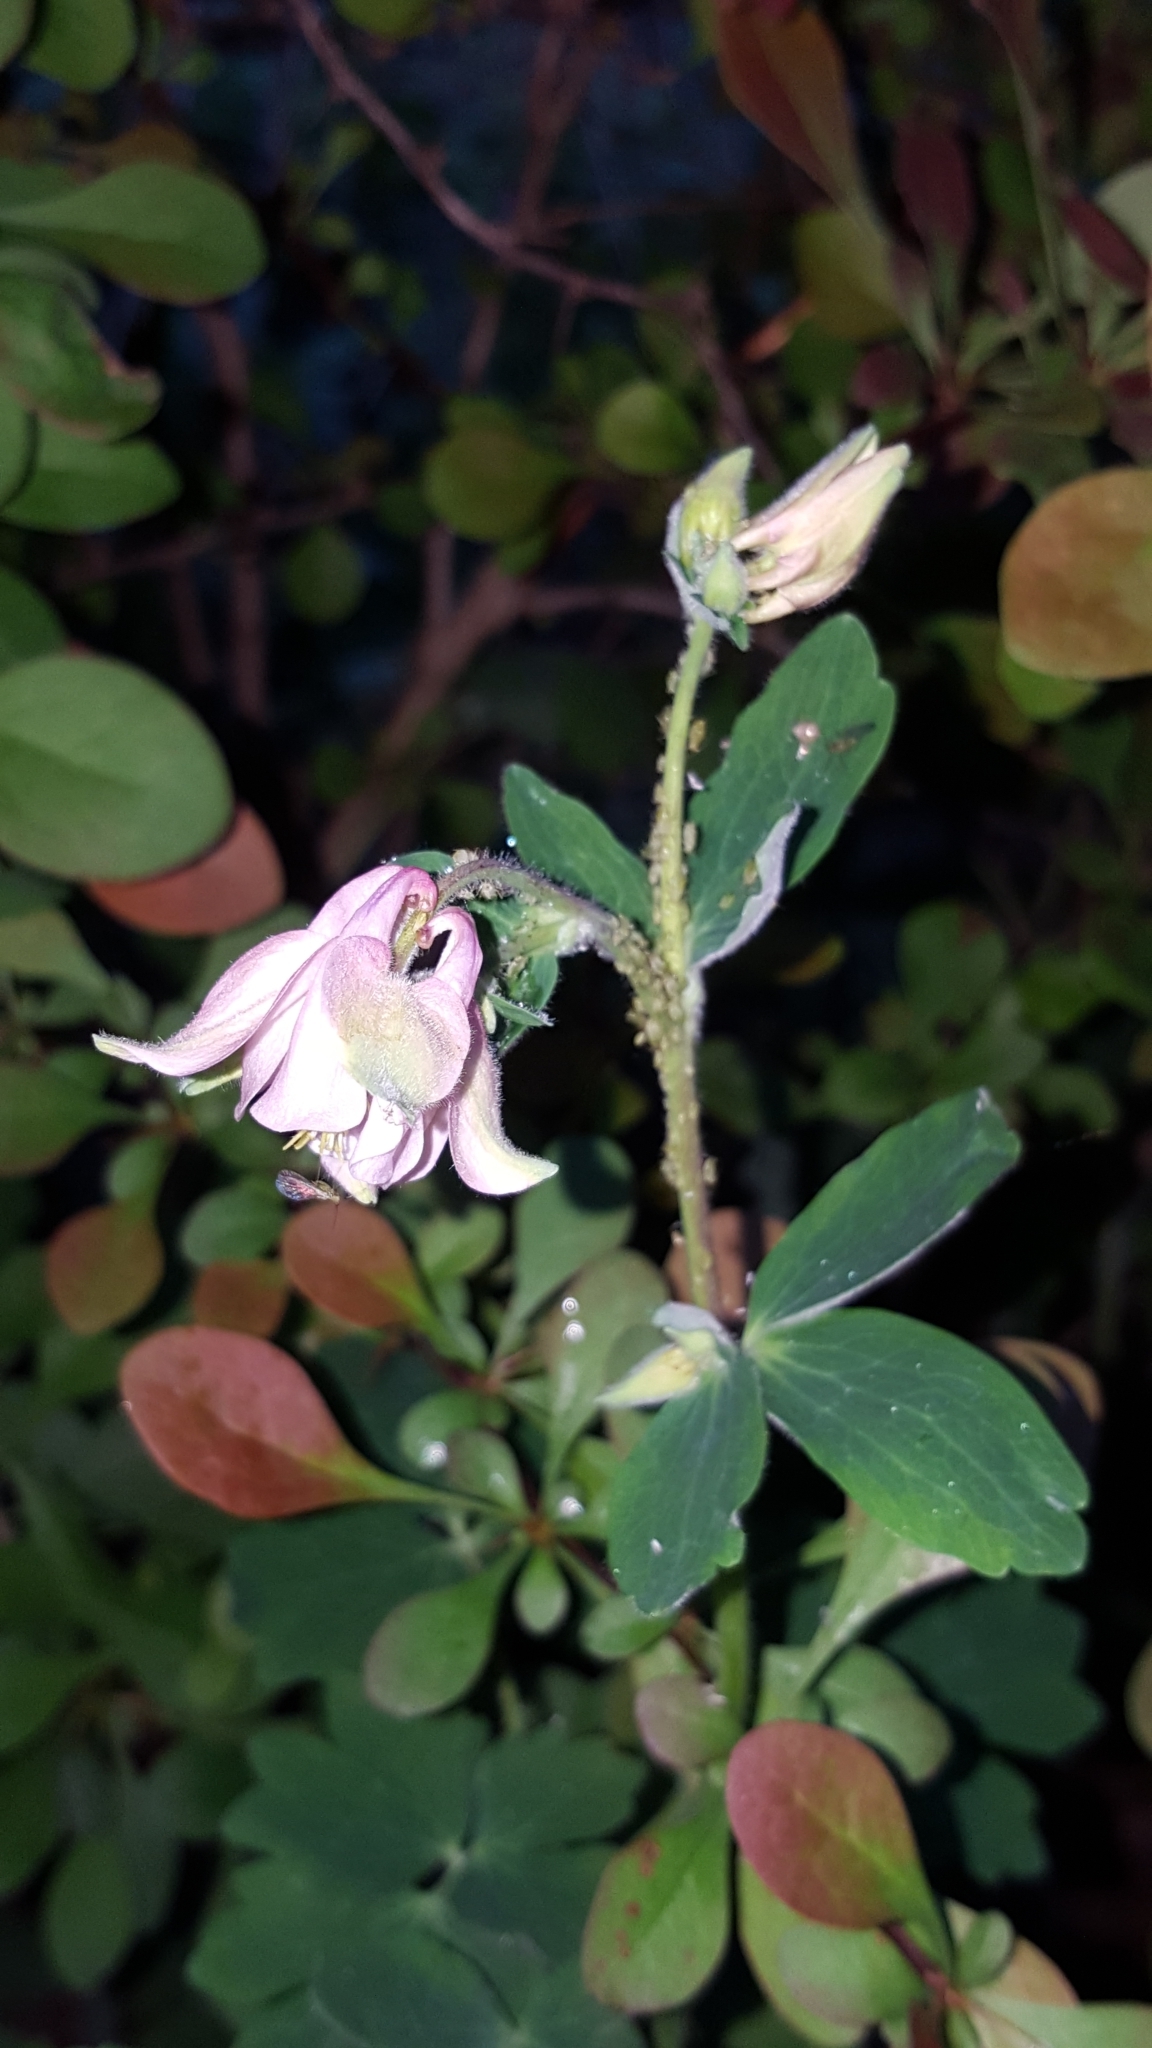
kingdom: Plantae
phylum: Tracheophyta
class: Magnoliopsida
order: Ranunculales
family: Ranunculaceae
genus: Aquilegia
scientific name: Aquilegia vulgaris
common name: Columbine
